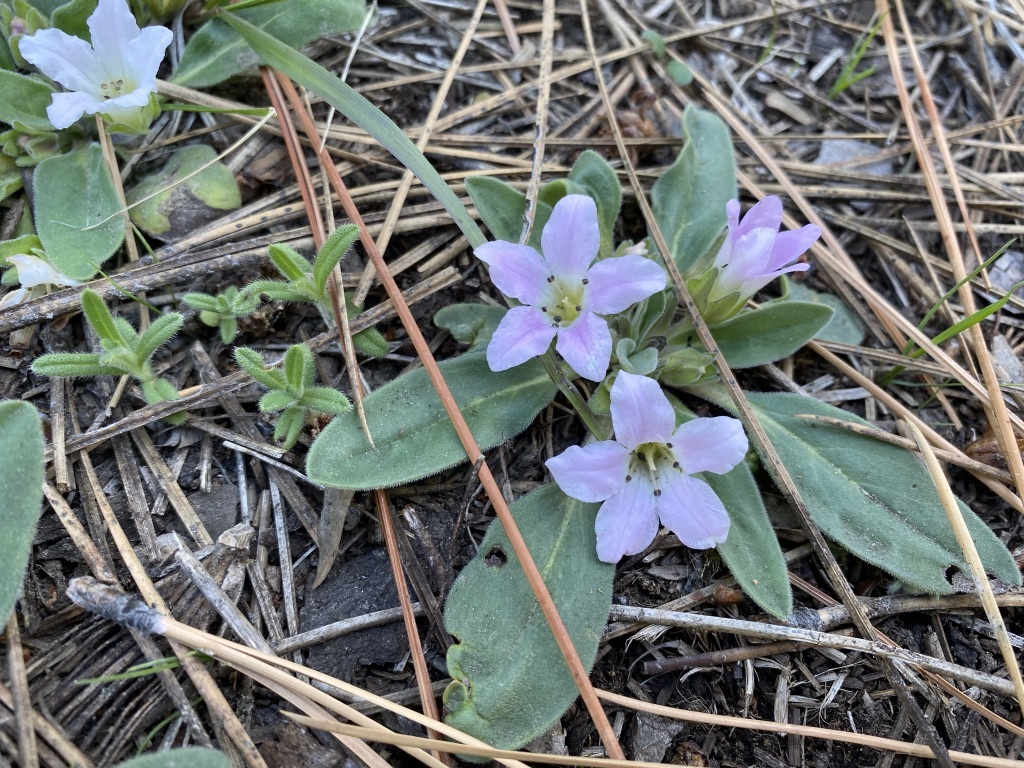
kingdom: Plantae
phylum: Tracheophyta
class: Magnoliopsida
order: Boraginales
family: Hydrophyllaceae
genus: Hesperochiron
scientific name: Hesperochiron californicus
